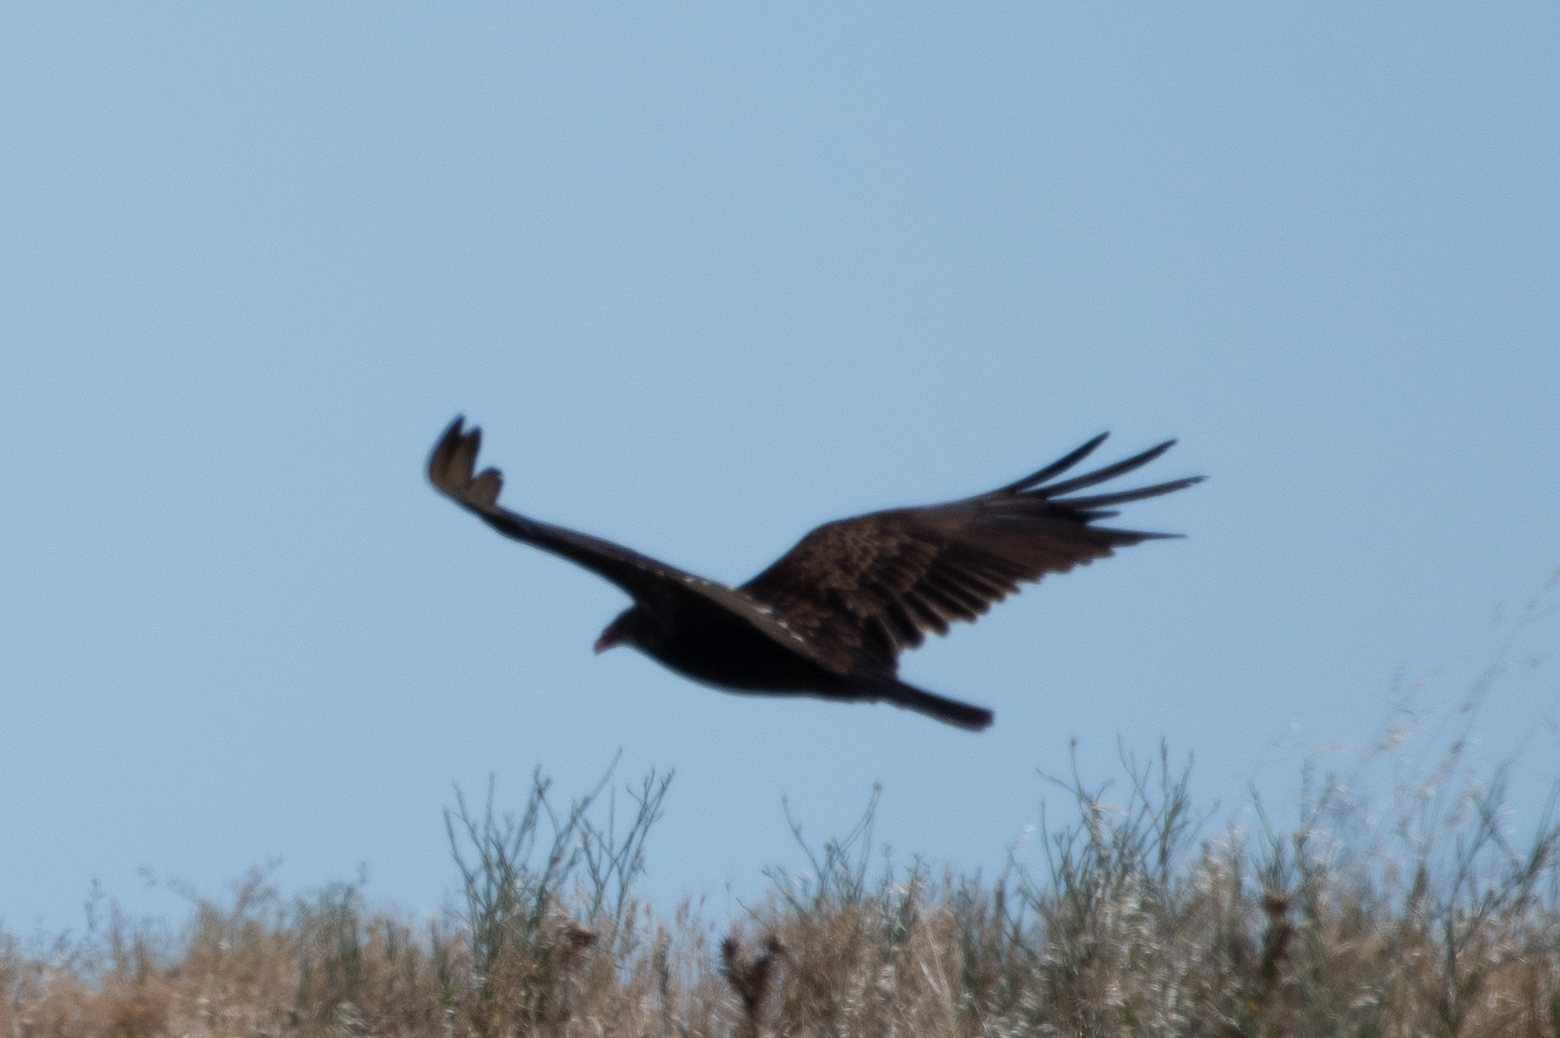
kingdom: Animalia
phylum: Chordata
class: Aves
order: Accipitriformes
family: Cathartidae
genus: Cathartes
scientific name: Cathartes aura
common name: Turkey vulture
